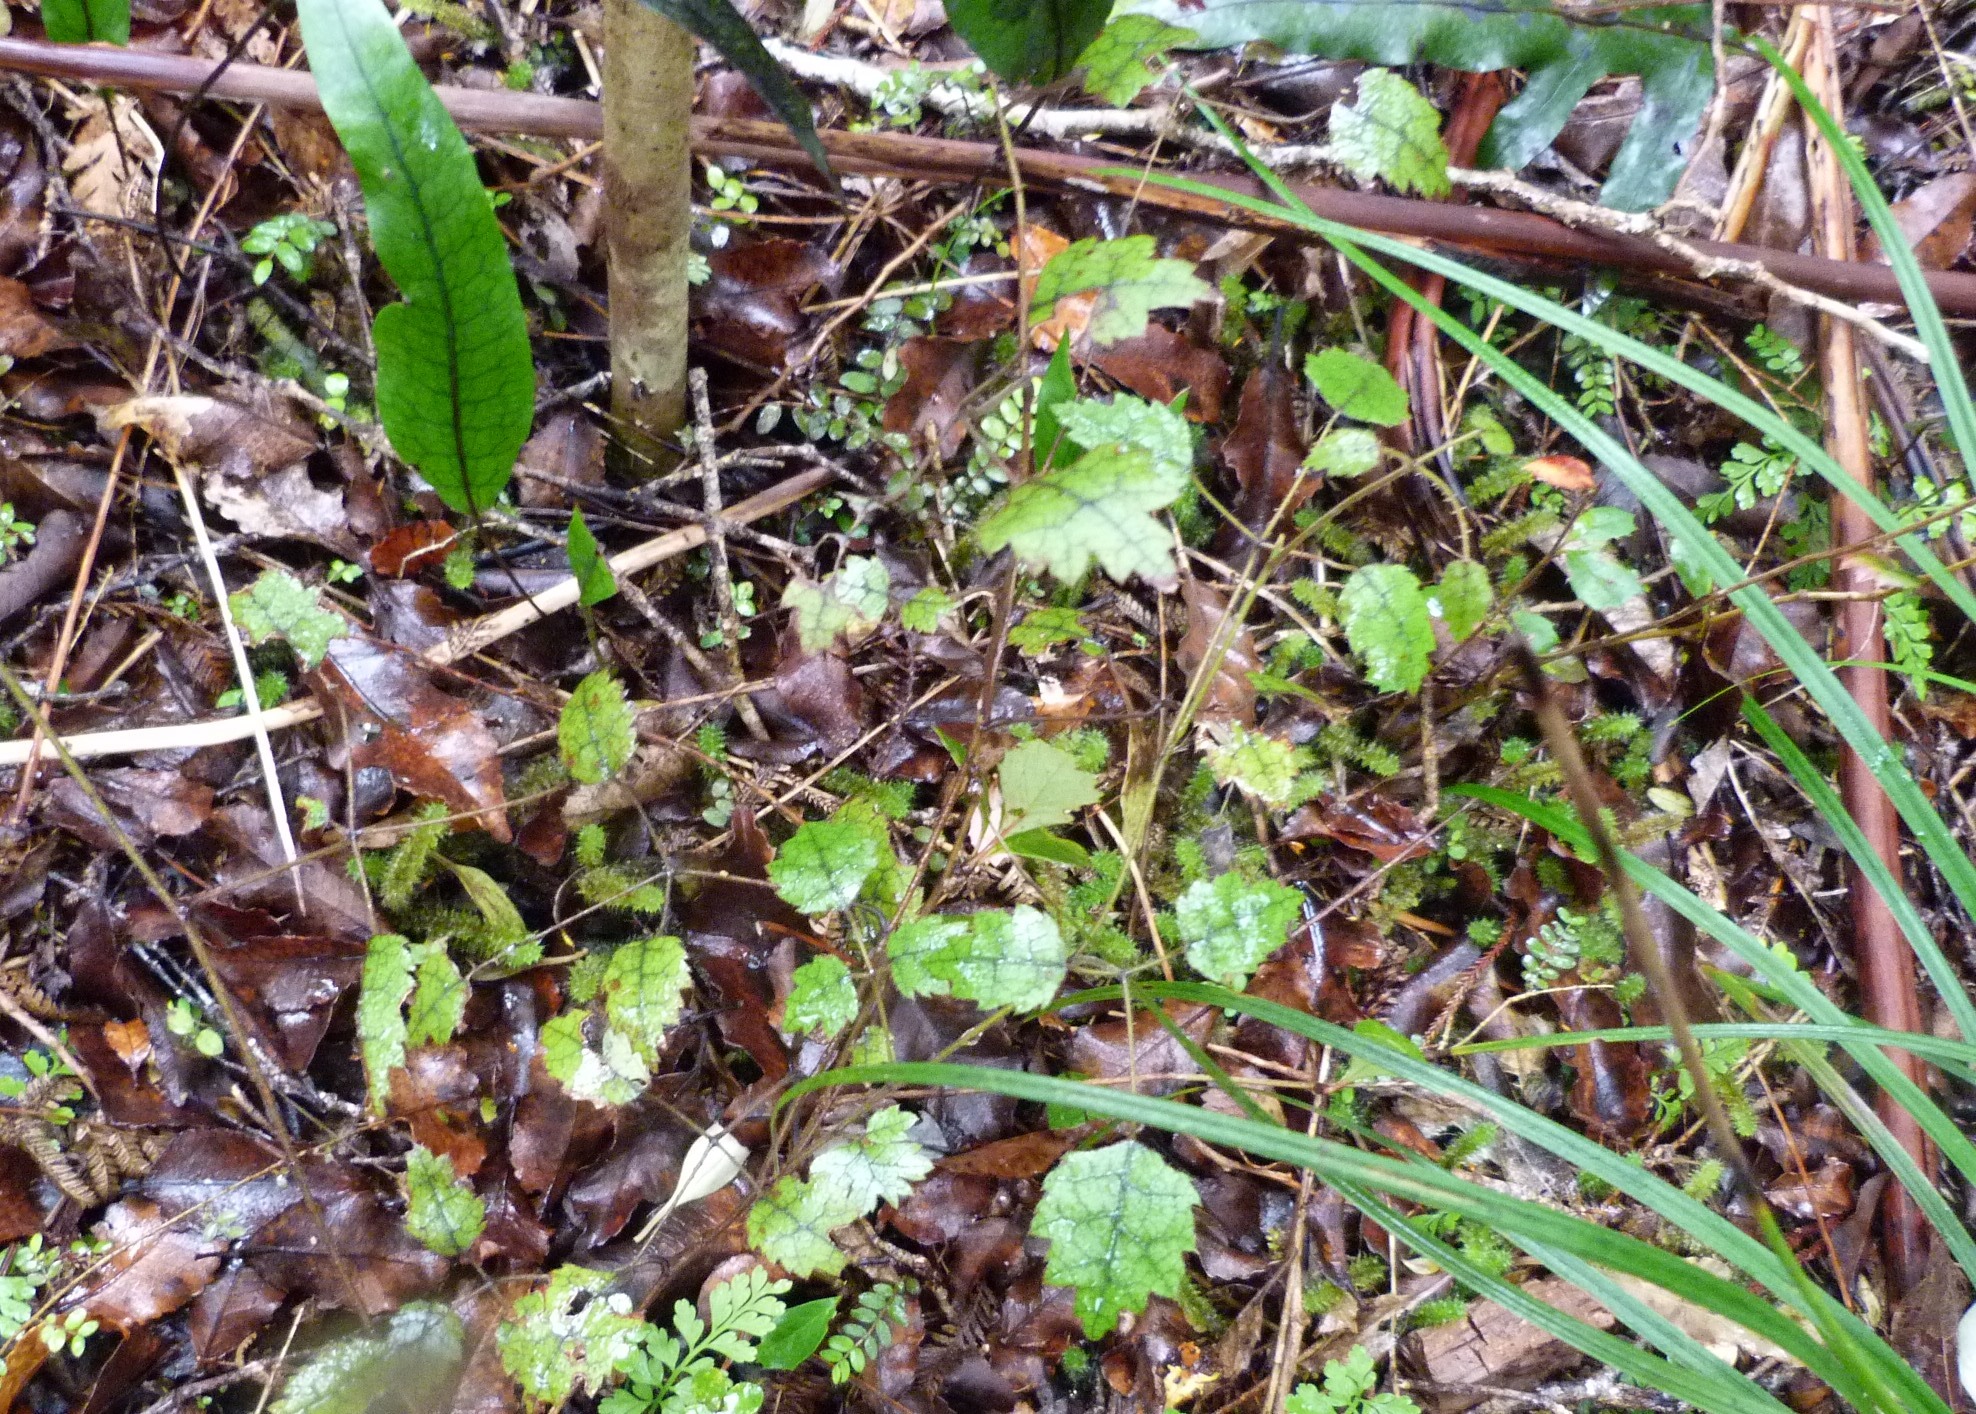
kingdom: Plantae
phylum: Tracheophyta
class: Magnoliopsida
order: Rosales
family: Rosaceae
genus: Rubus
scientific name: Rubus australis
